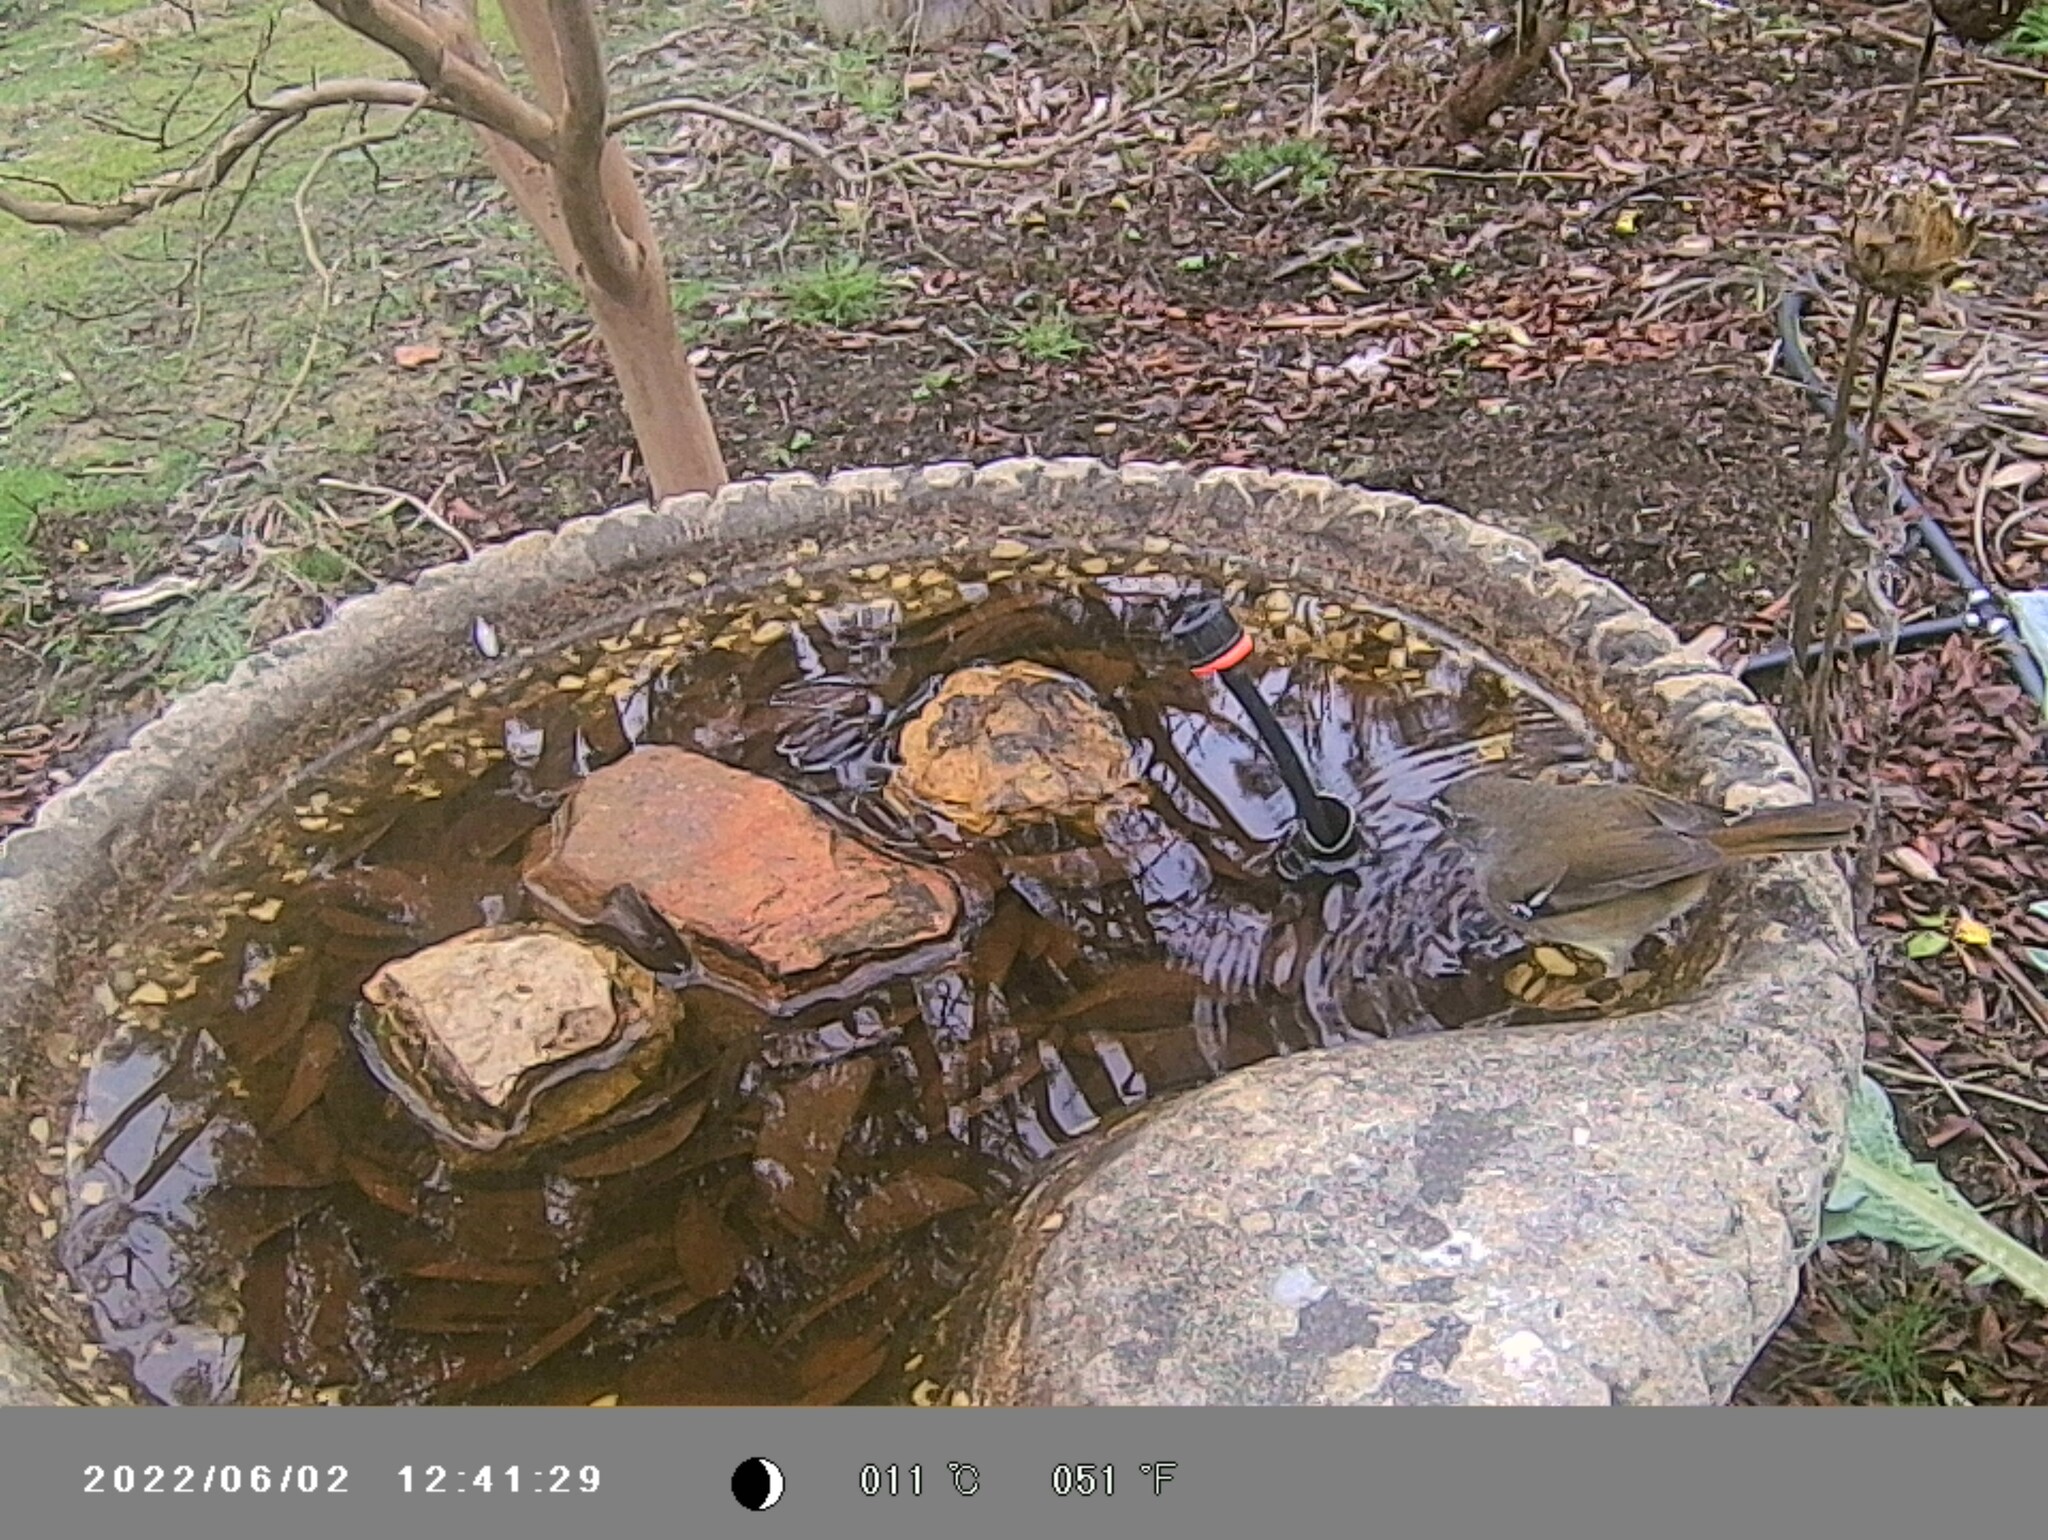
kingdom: Animalia
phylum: Chordata
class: Aves
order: Passeriformes
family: Acanthizidae
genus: Sericornis
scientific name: Sericornis frontalis
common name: White-browed scrubwren
